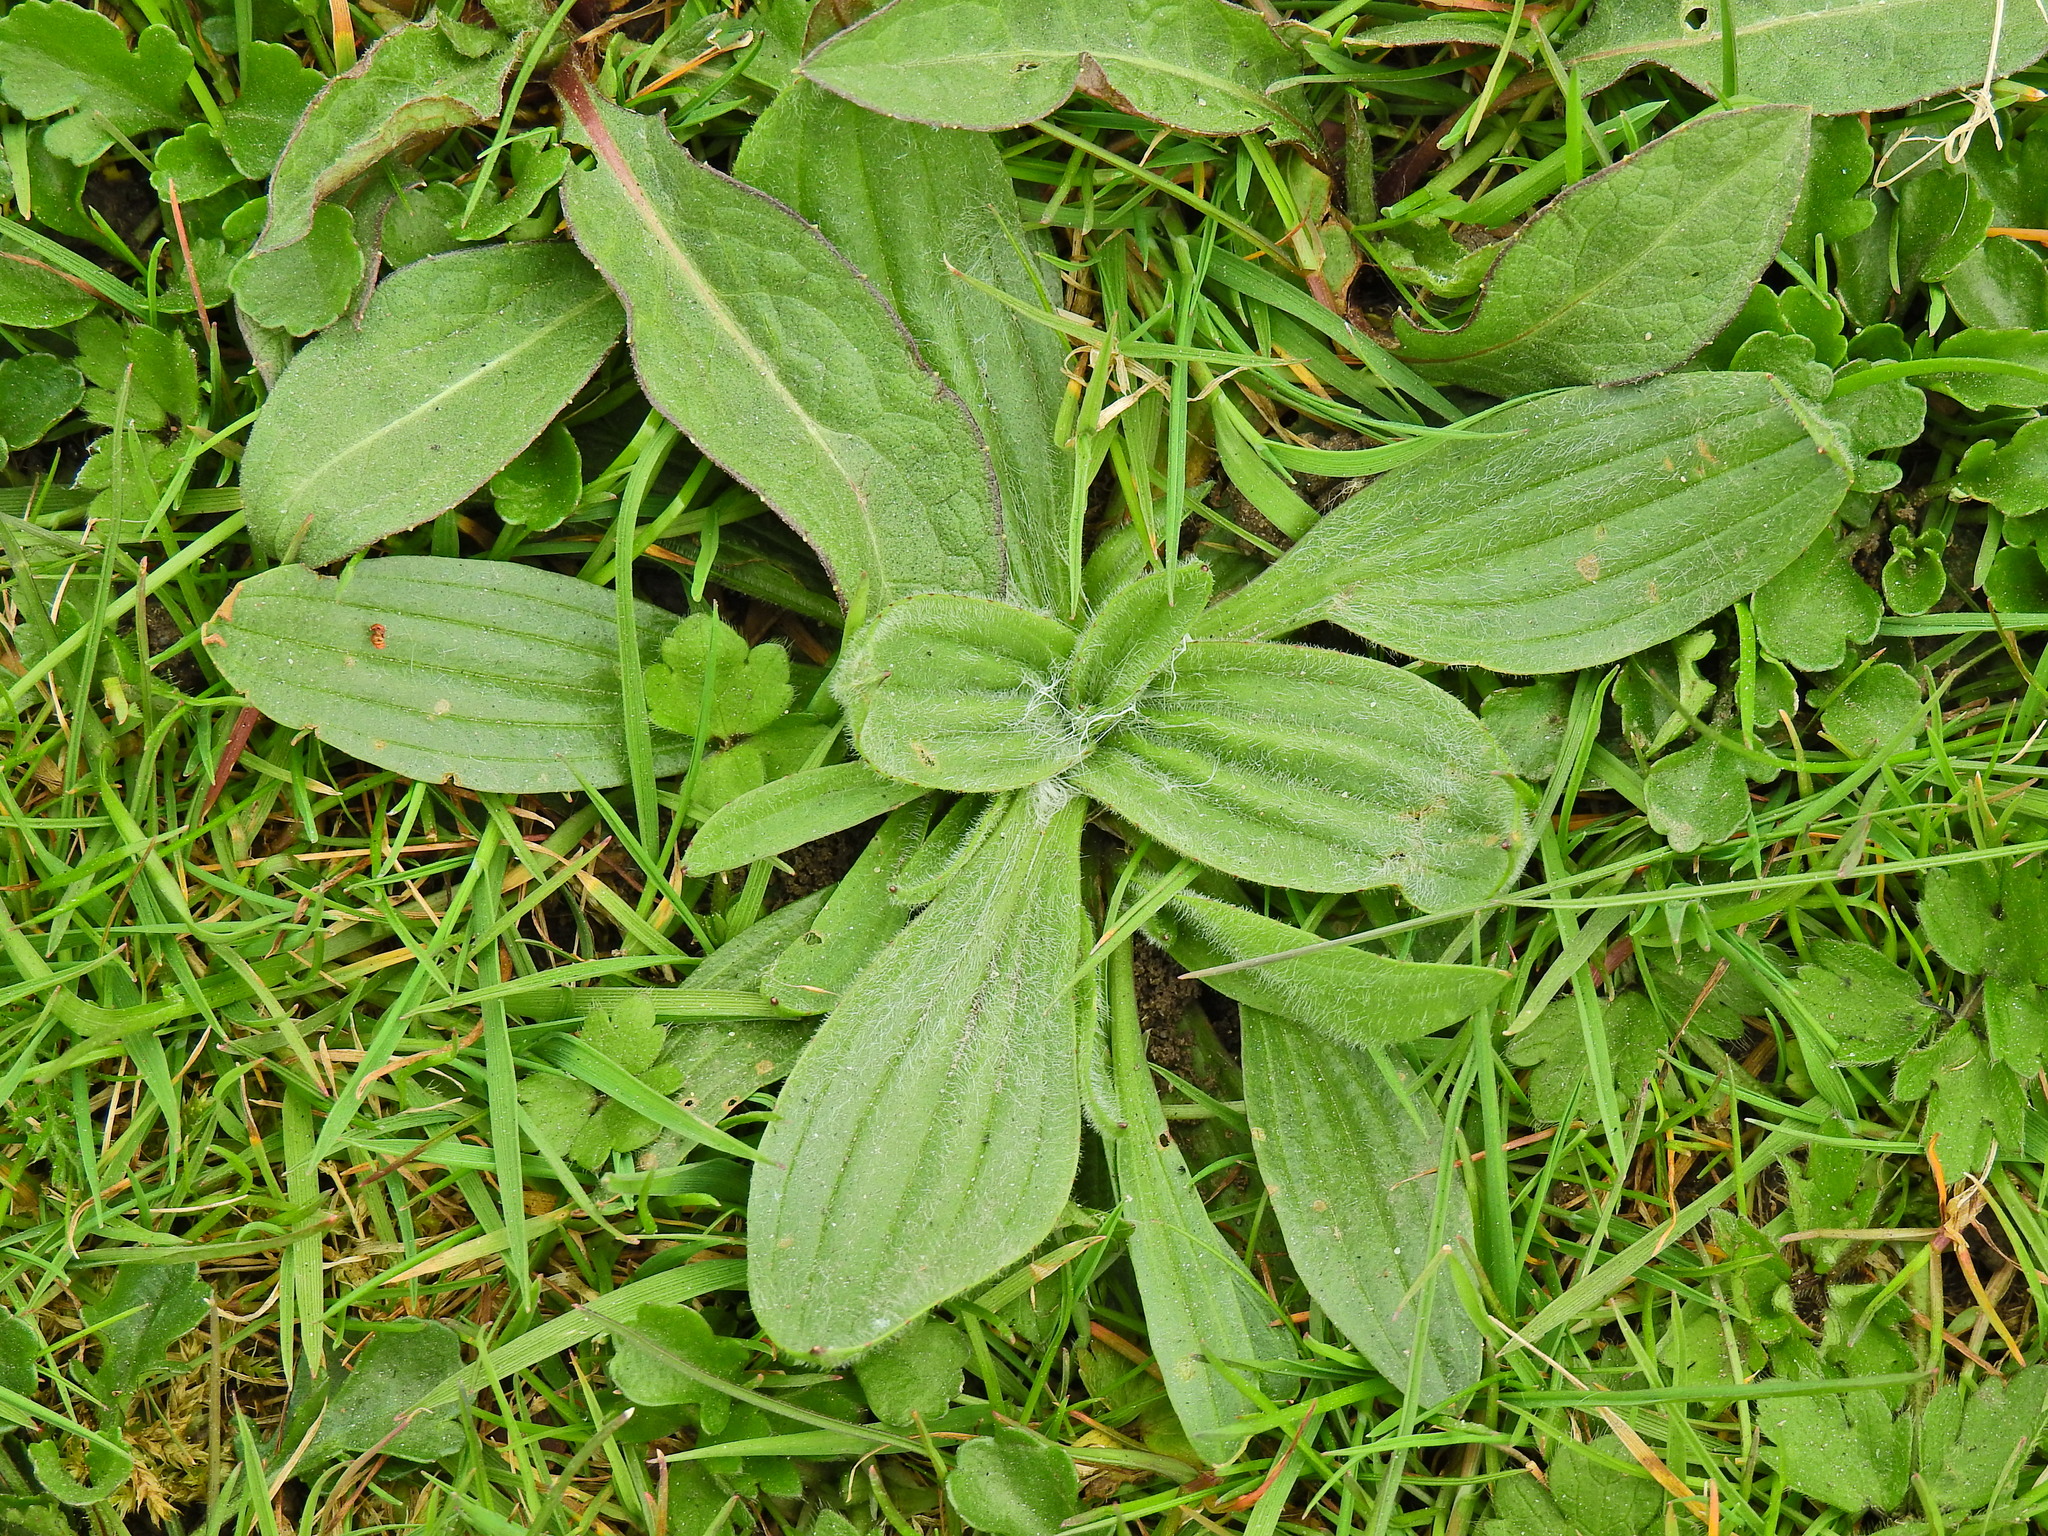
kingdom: Plantae
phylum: Tracheophyta
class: Magnoliopsida
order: Lamiales
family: Plantaginaceae
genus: Plantago
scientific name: Plantago media
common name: Hoary plantain
